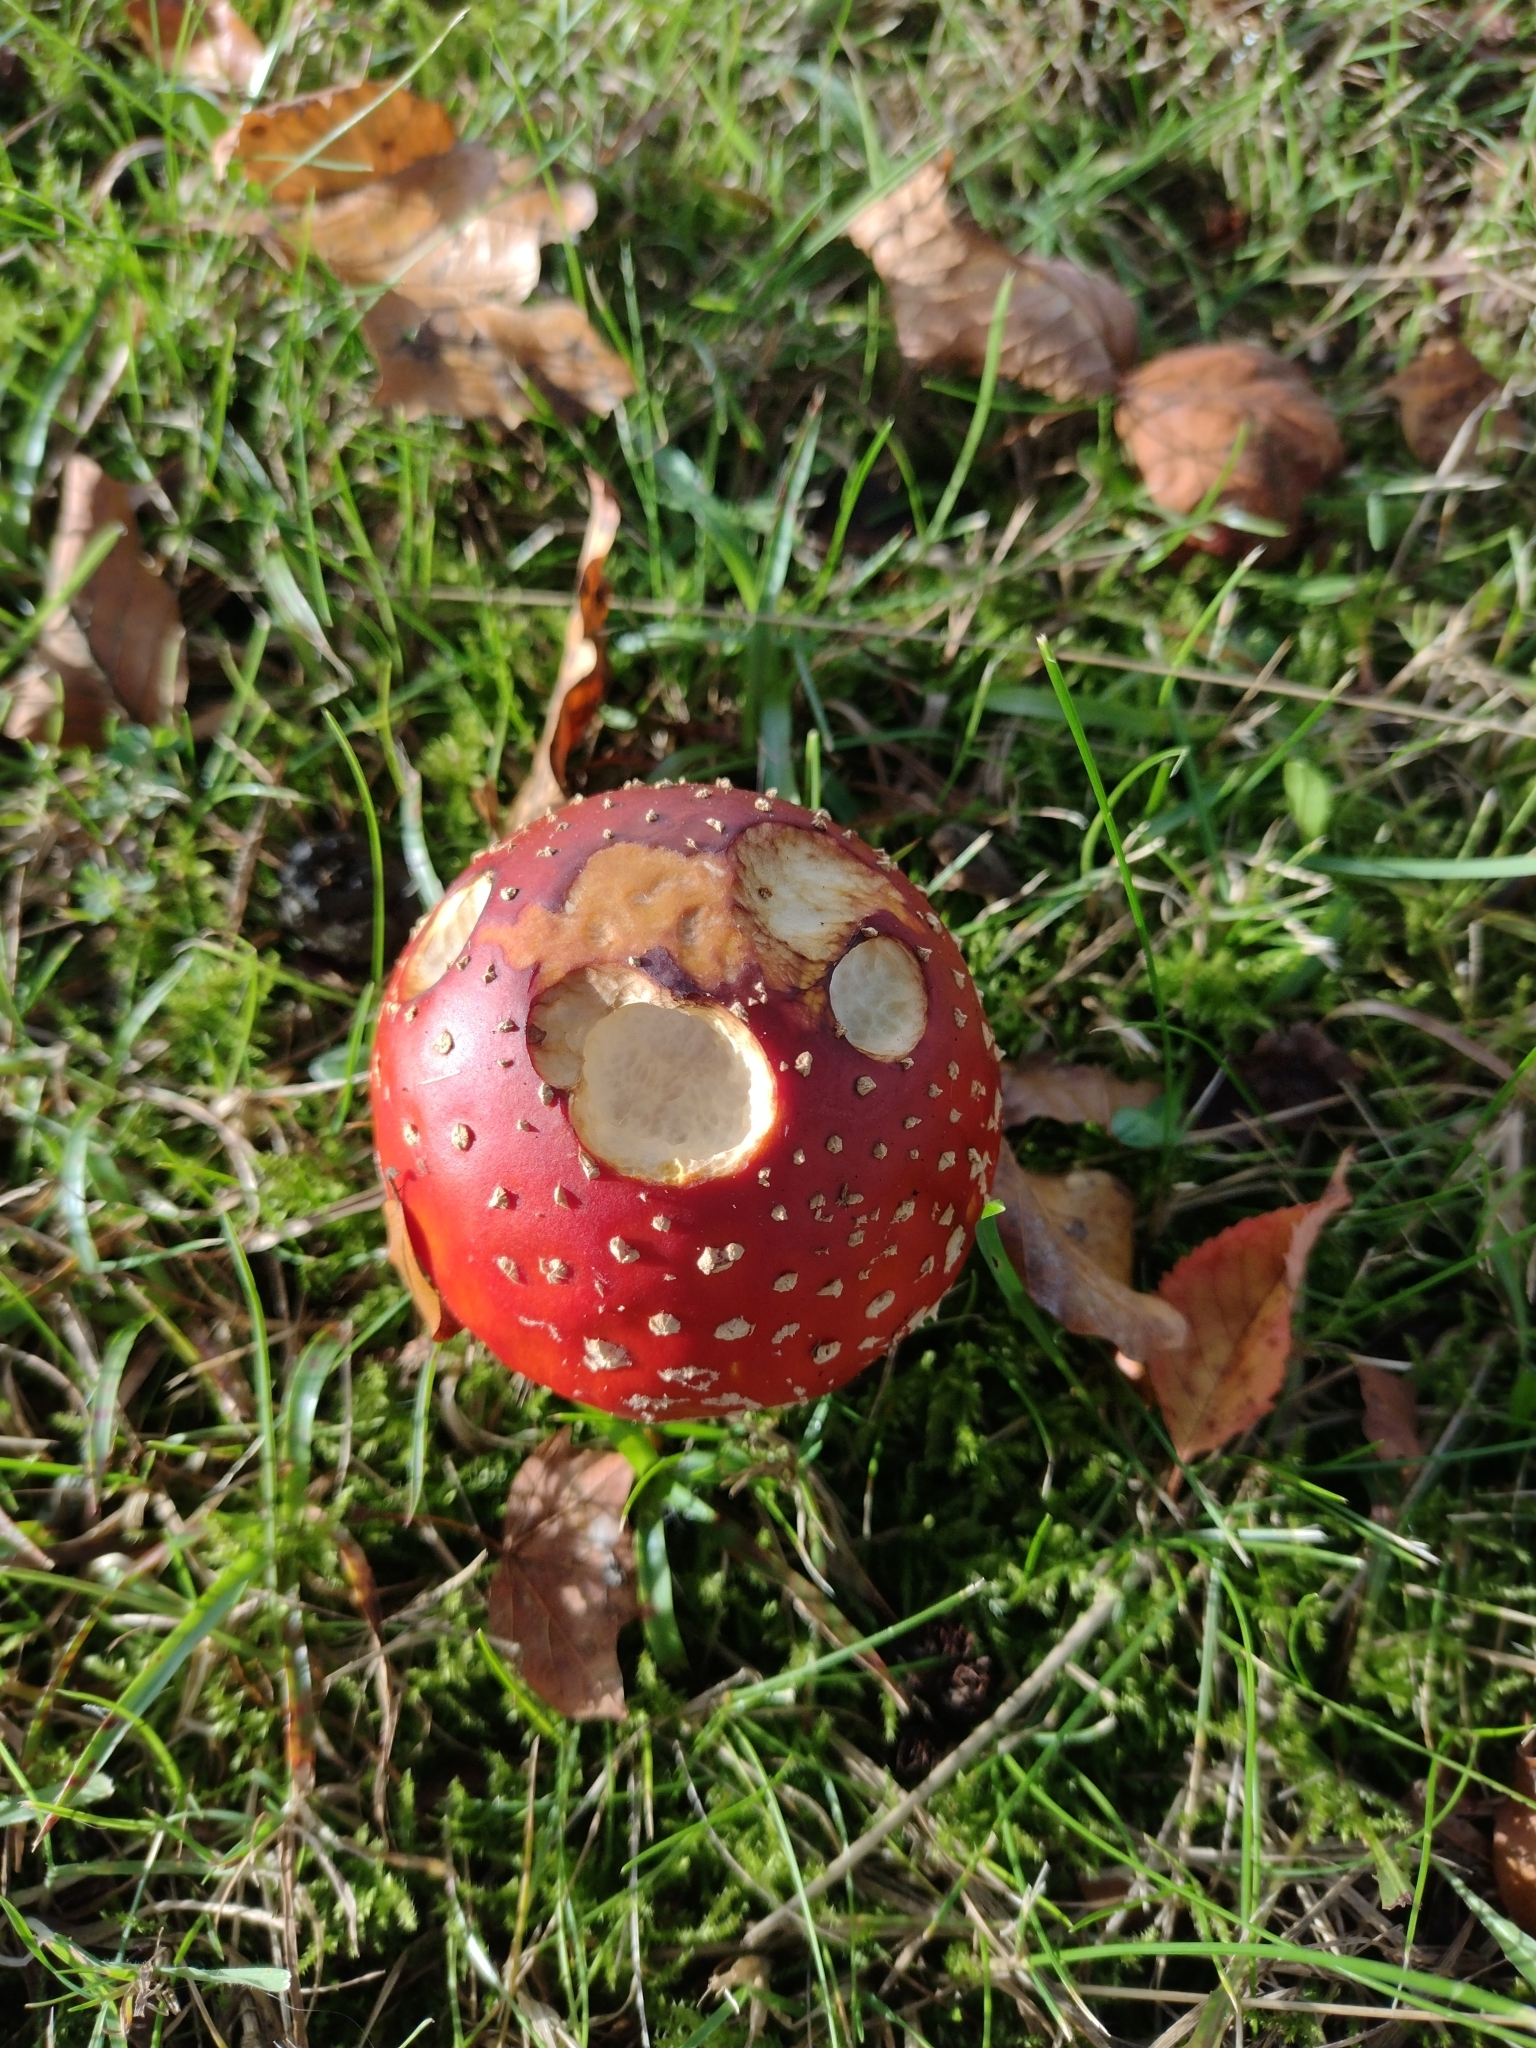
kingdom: Fungi
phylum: Basidiomycota
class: Agaricomycetes
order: Agaricales
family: Amanitaceae
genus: Amanita
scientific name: Amanita muscaria
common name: Fly agaric
